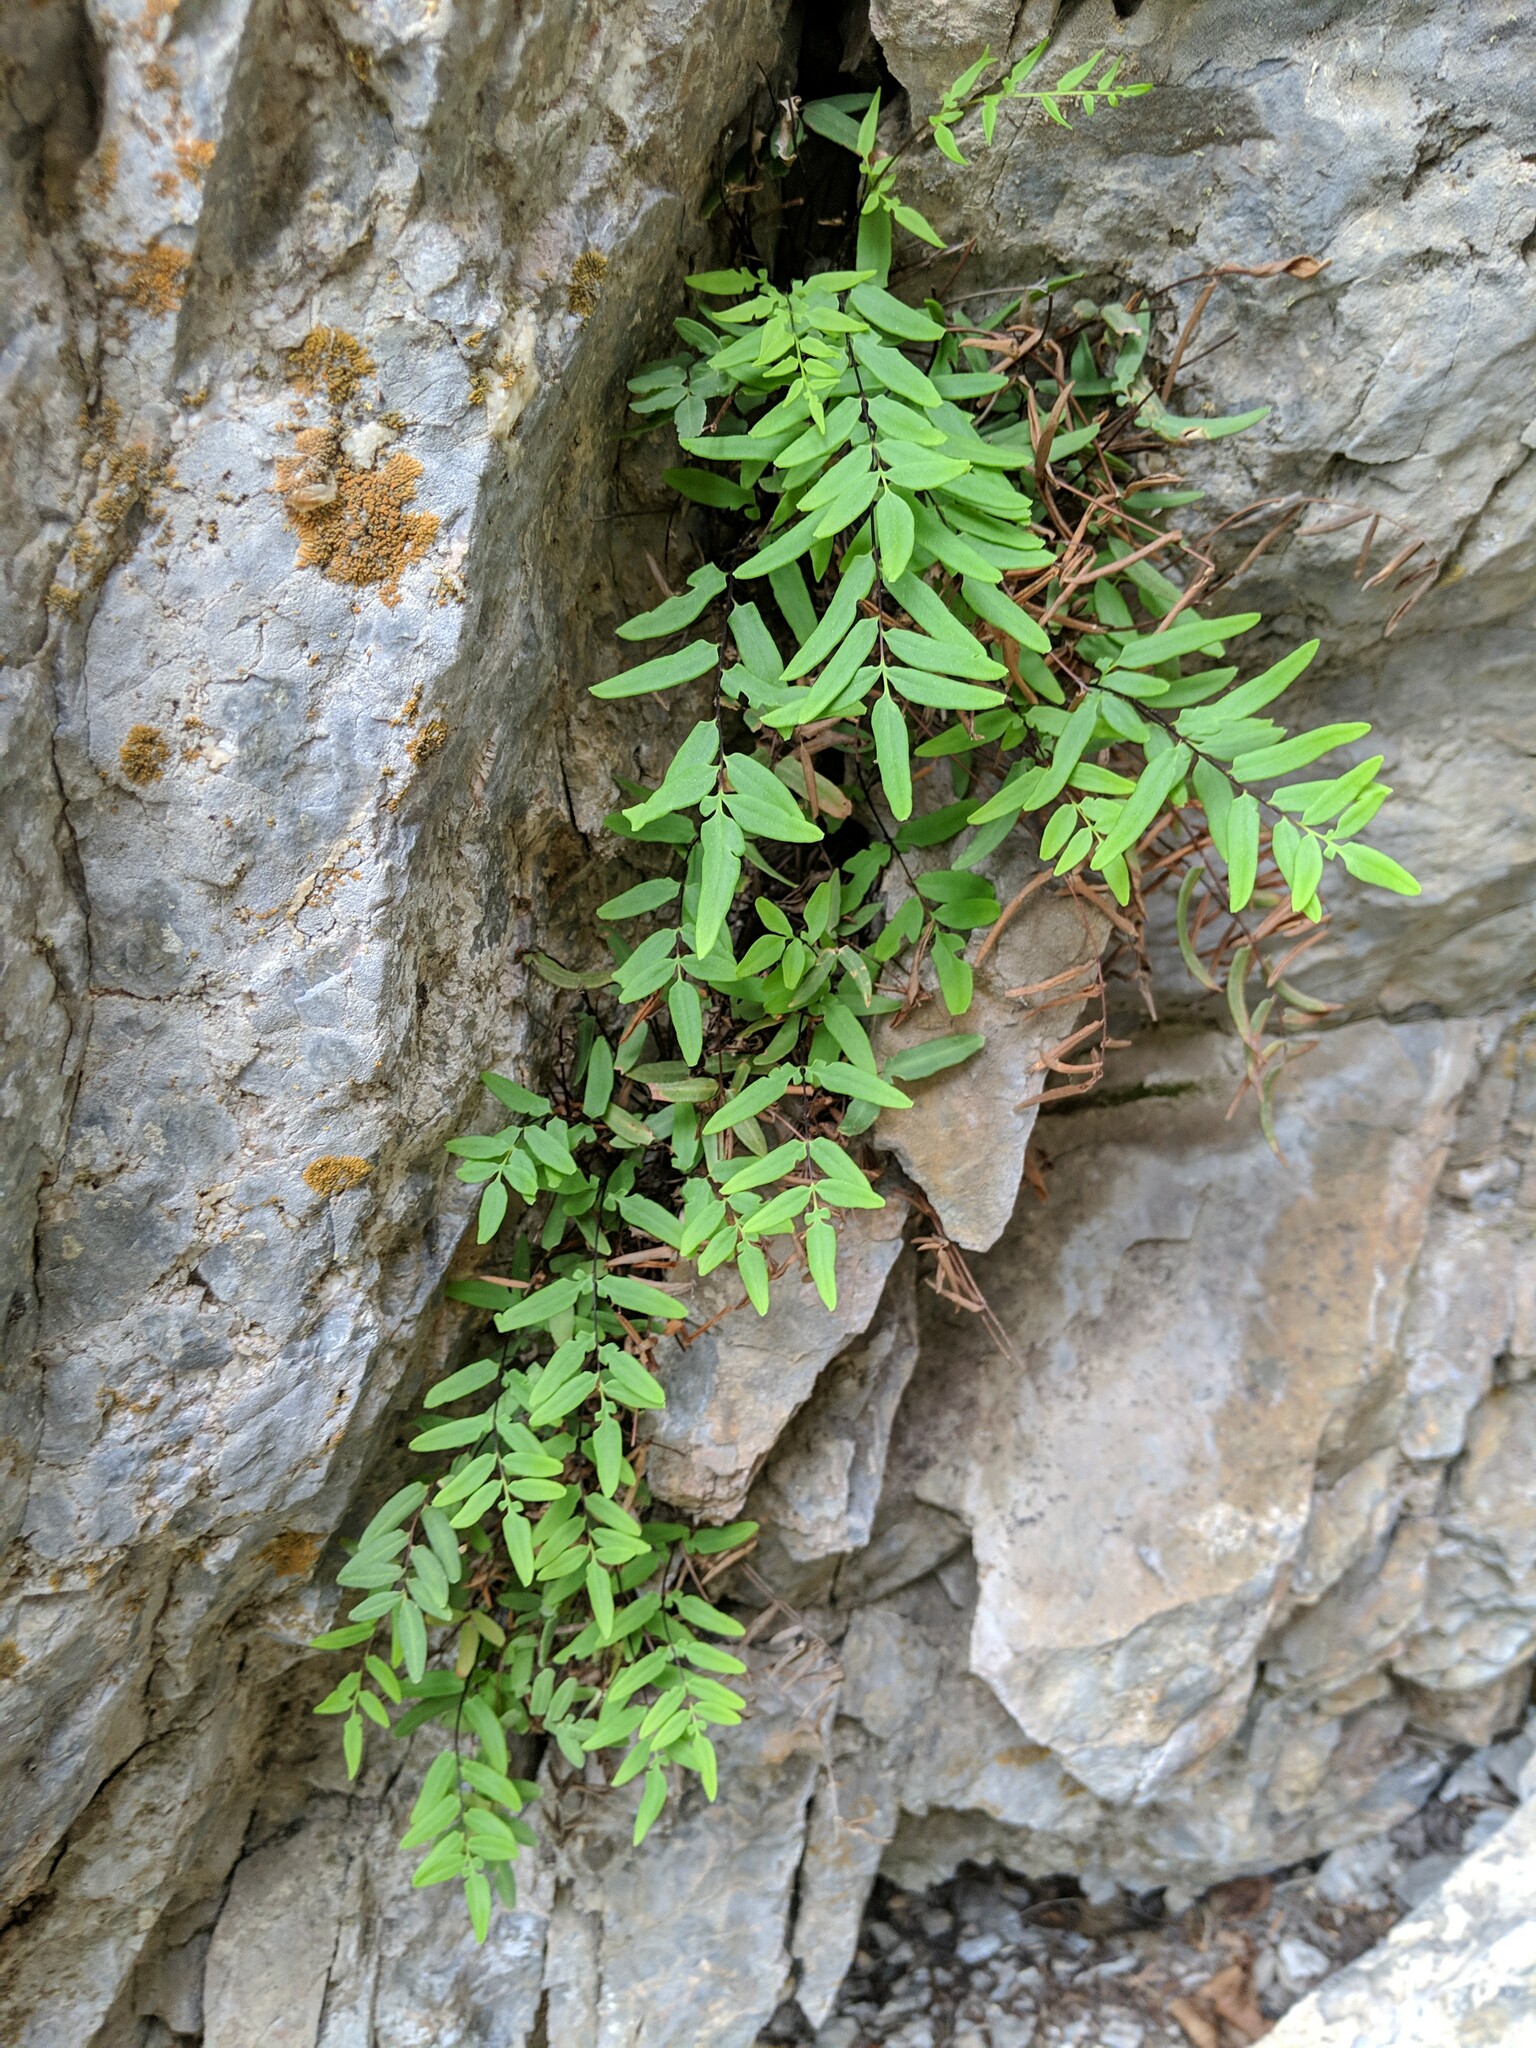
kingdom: Plantae
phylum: Tracheophyta
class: Polypodiopsida
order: Polypodiales
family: Pteridaceae
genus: Pellaea
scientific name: Pellaea glabella
